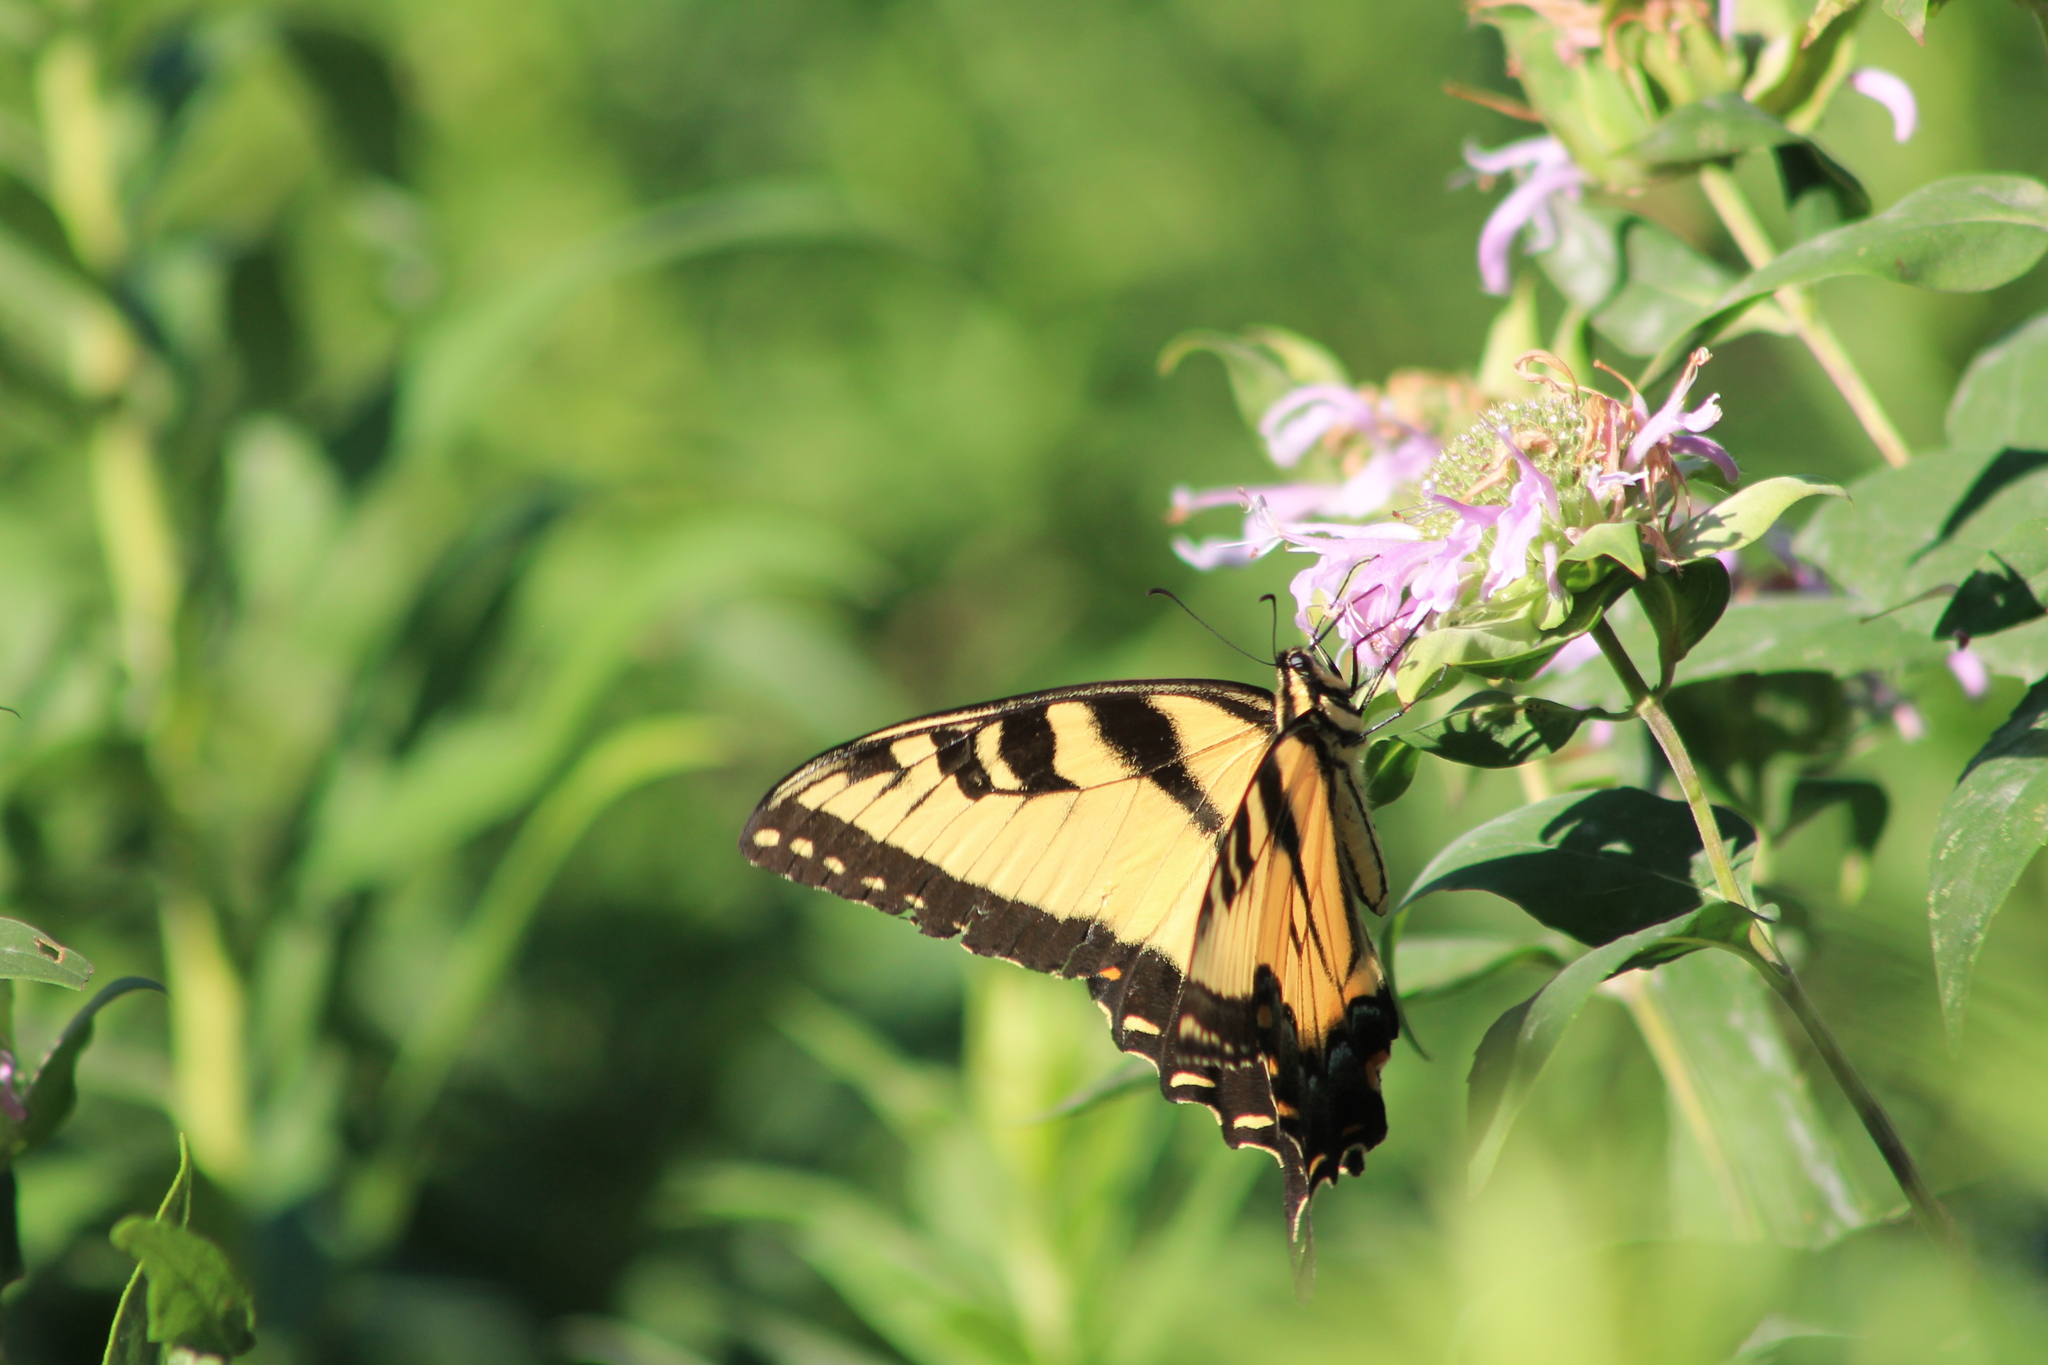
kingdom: Animalia
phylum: Arthropoda
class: Insecta
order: Lepidoptera
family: Papilionidae
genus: Papilio
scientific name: Papilio glaucus
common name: Tiger swallowtail
